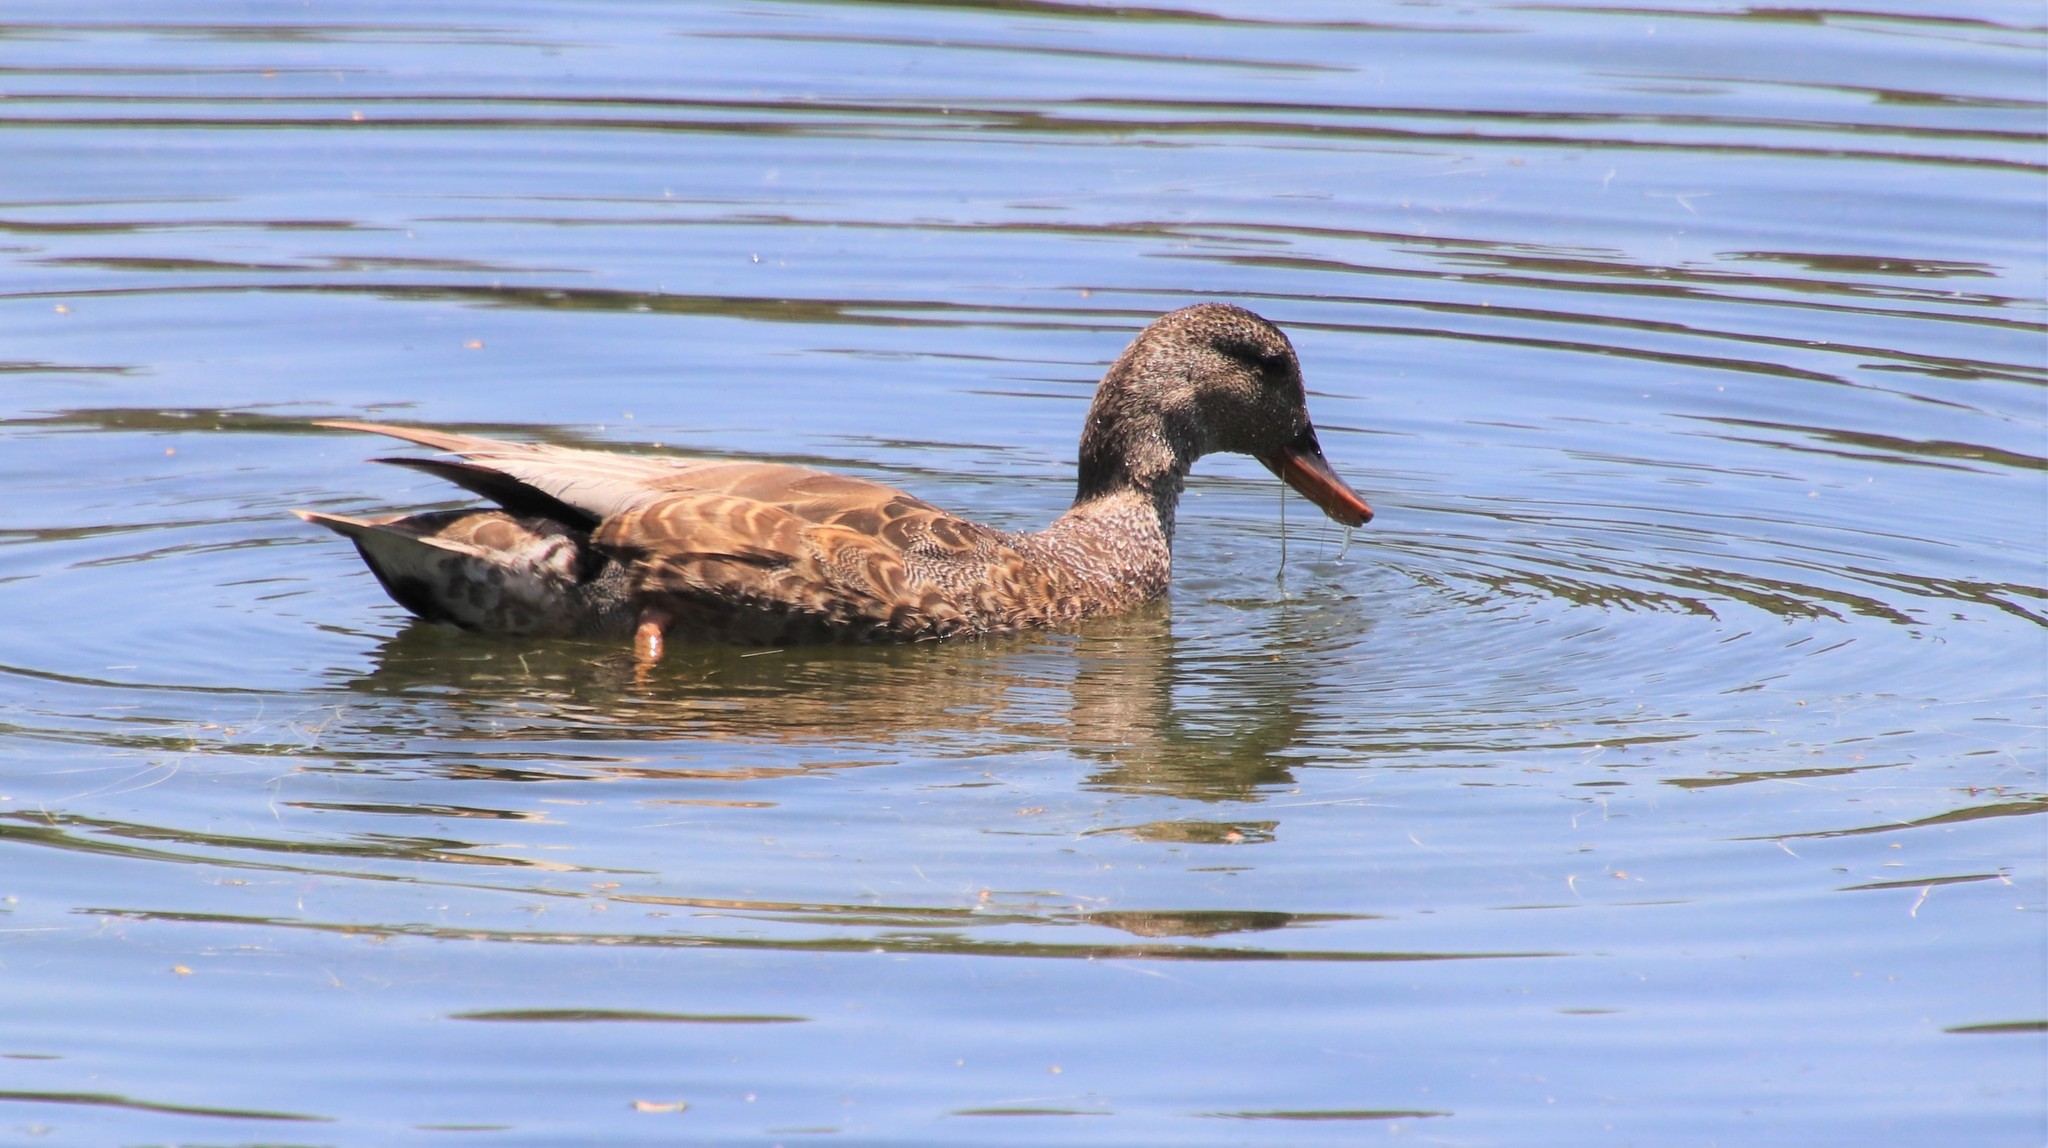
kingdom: Animalia
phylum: Chordata
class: Aves
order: Anseriformes
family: Anatidae
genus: Mareca
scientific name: Mareca strepera
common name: Gadwall
